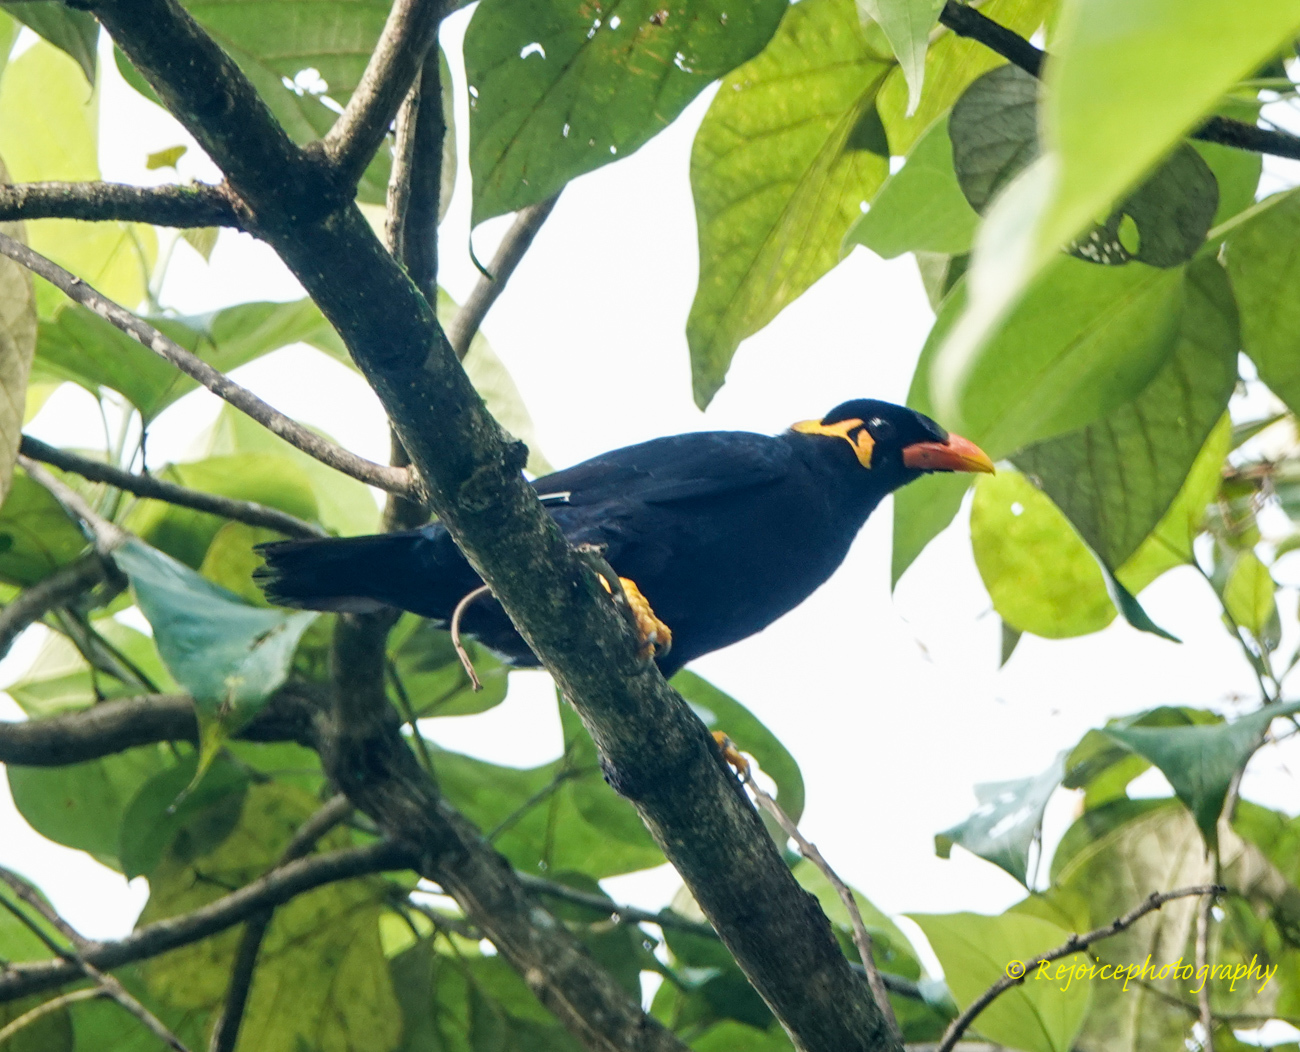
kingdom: Animalia
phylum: Chordata
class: Aves
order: Passeriformes
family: Sturnidae
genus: Gracula
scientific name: Gracula religiosa
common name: Common hill myna
